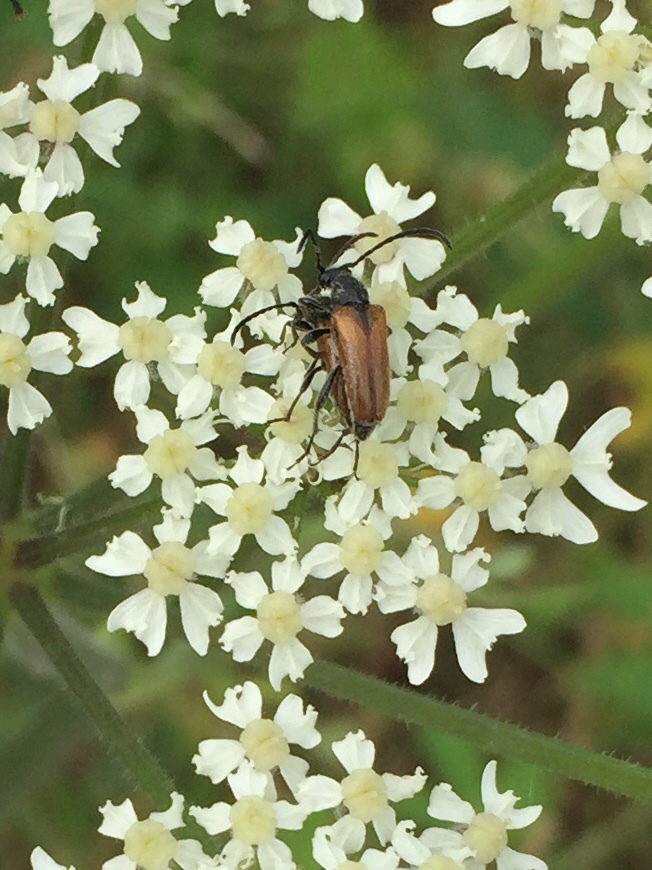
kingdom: Animalia
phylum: Arthropoda
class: Insecta
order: Coleoptera
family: Cerambycidae
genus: Pseudovadonia
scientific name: Pseudovadonia livida
